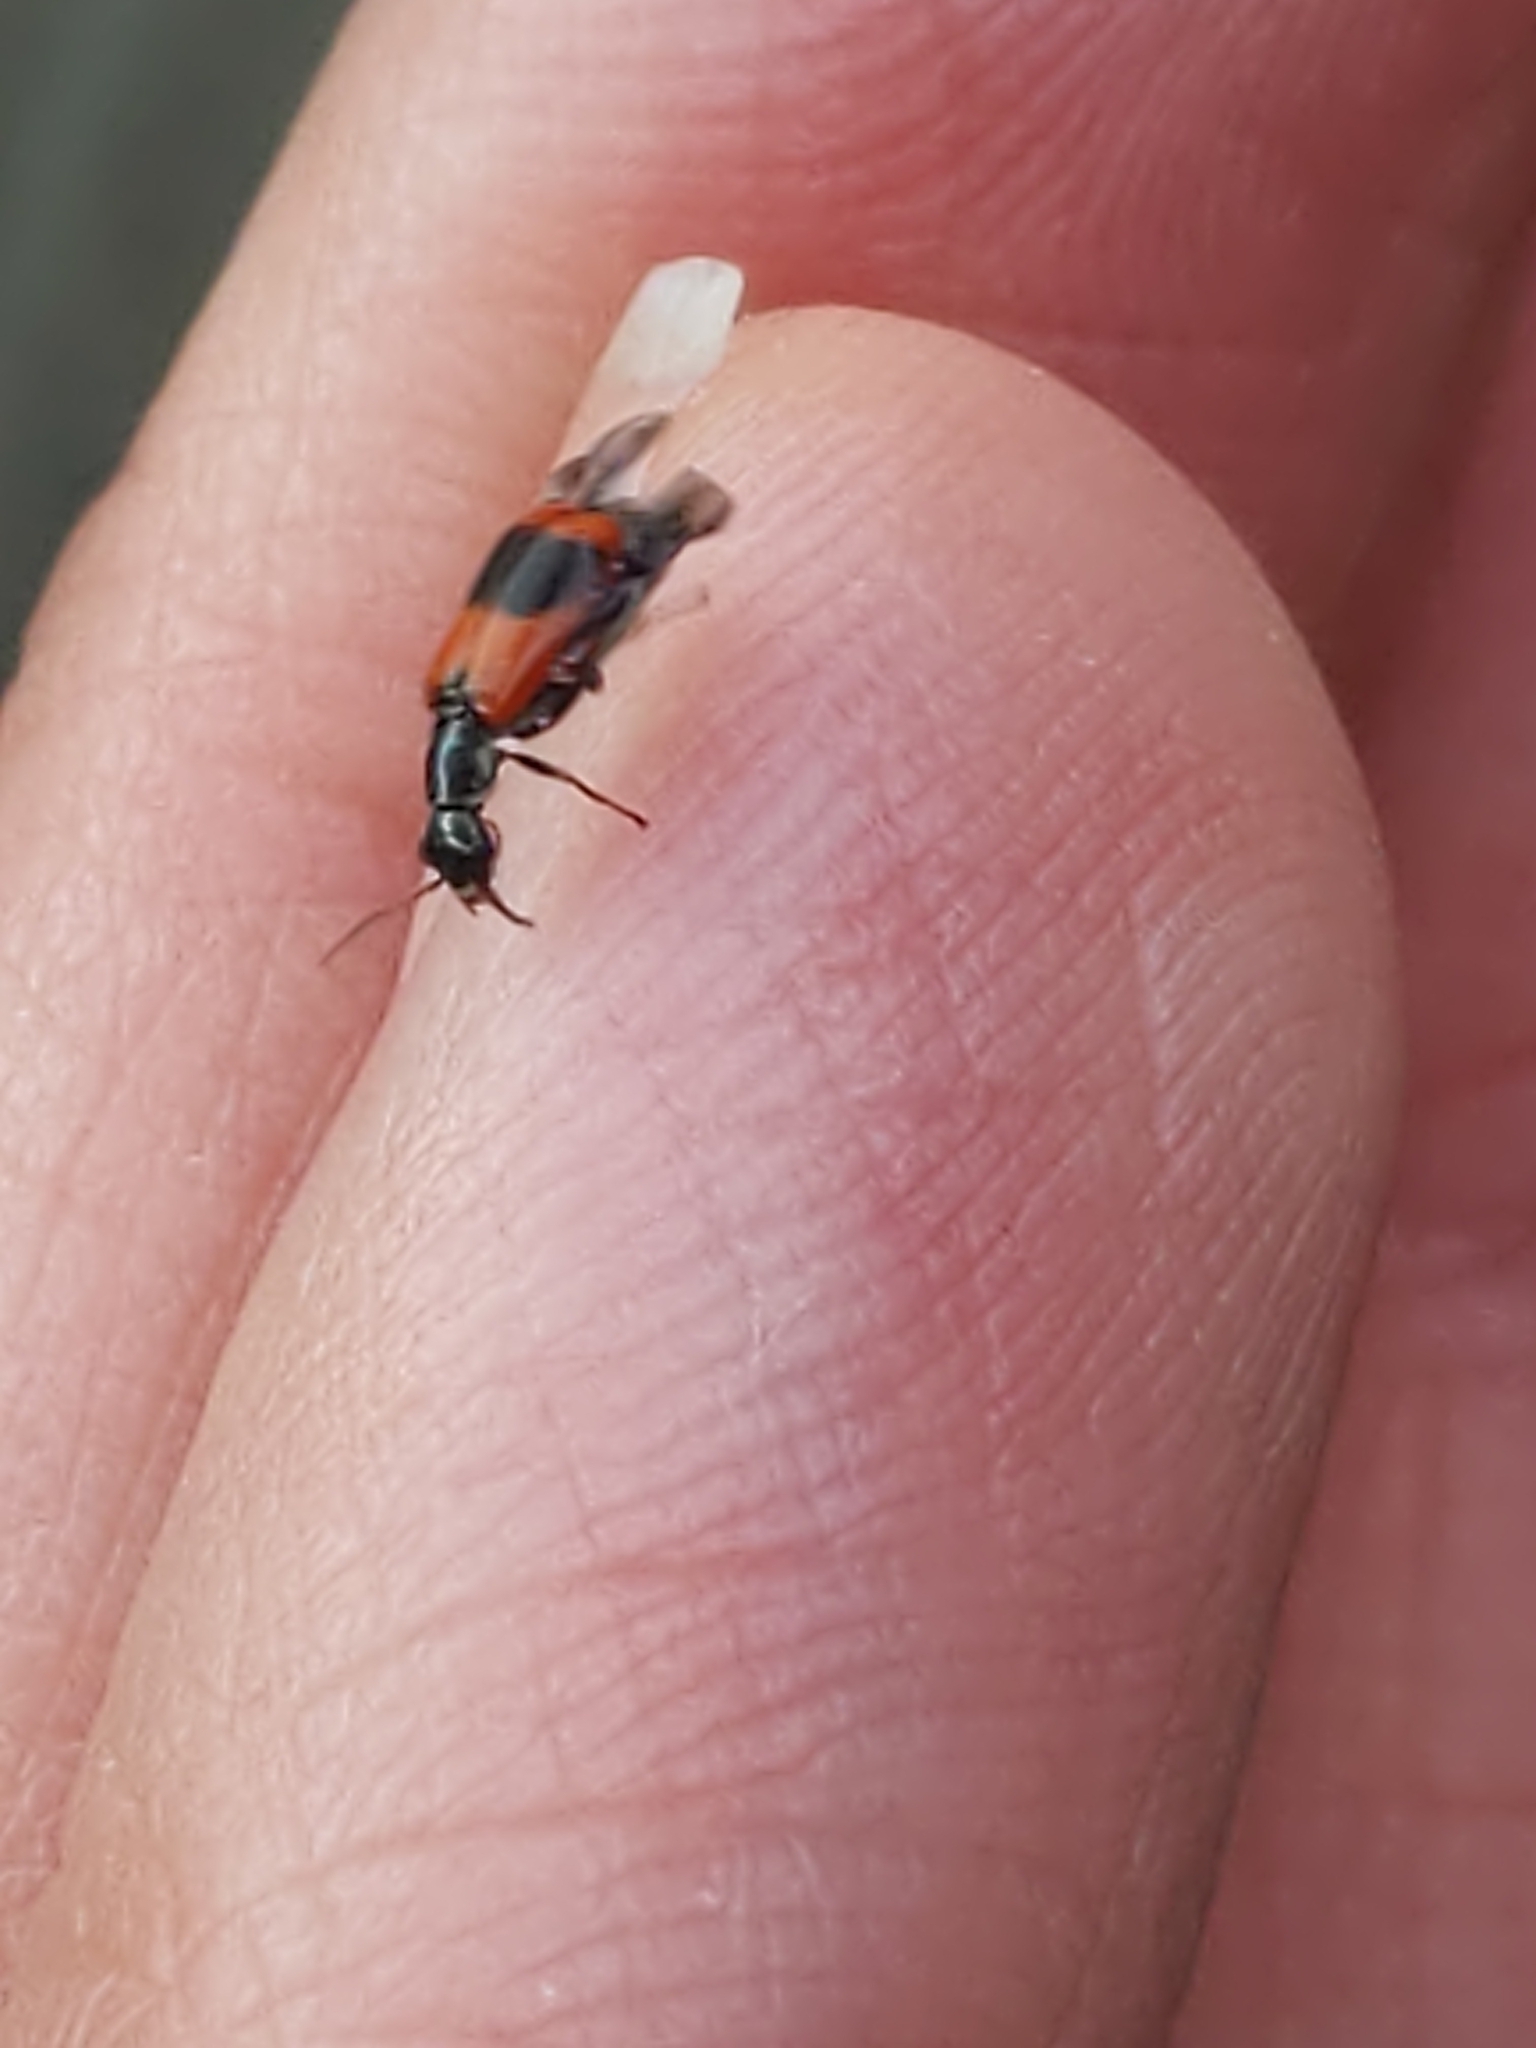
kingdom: Animalia
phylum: Arthropoda
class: Insecta
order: Coleoptera
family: Melyridae
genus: Anthocomus
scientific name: Anthocomus equestris
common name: Black-banded soft-winged flower beetle
